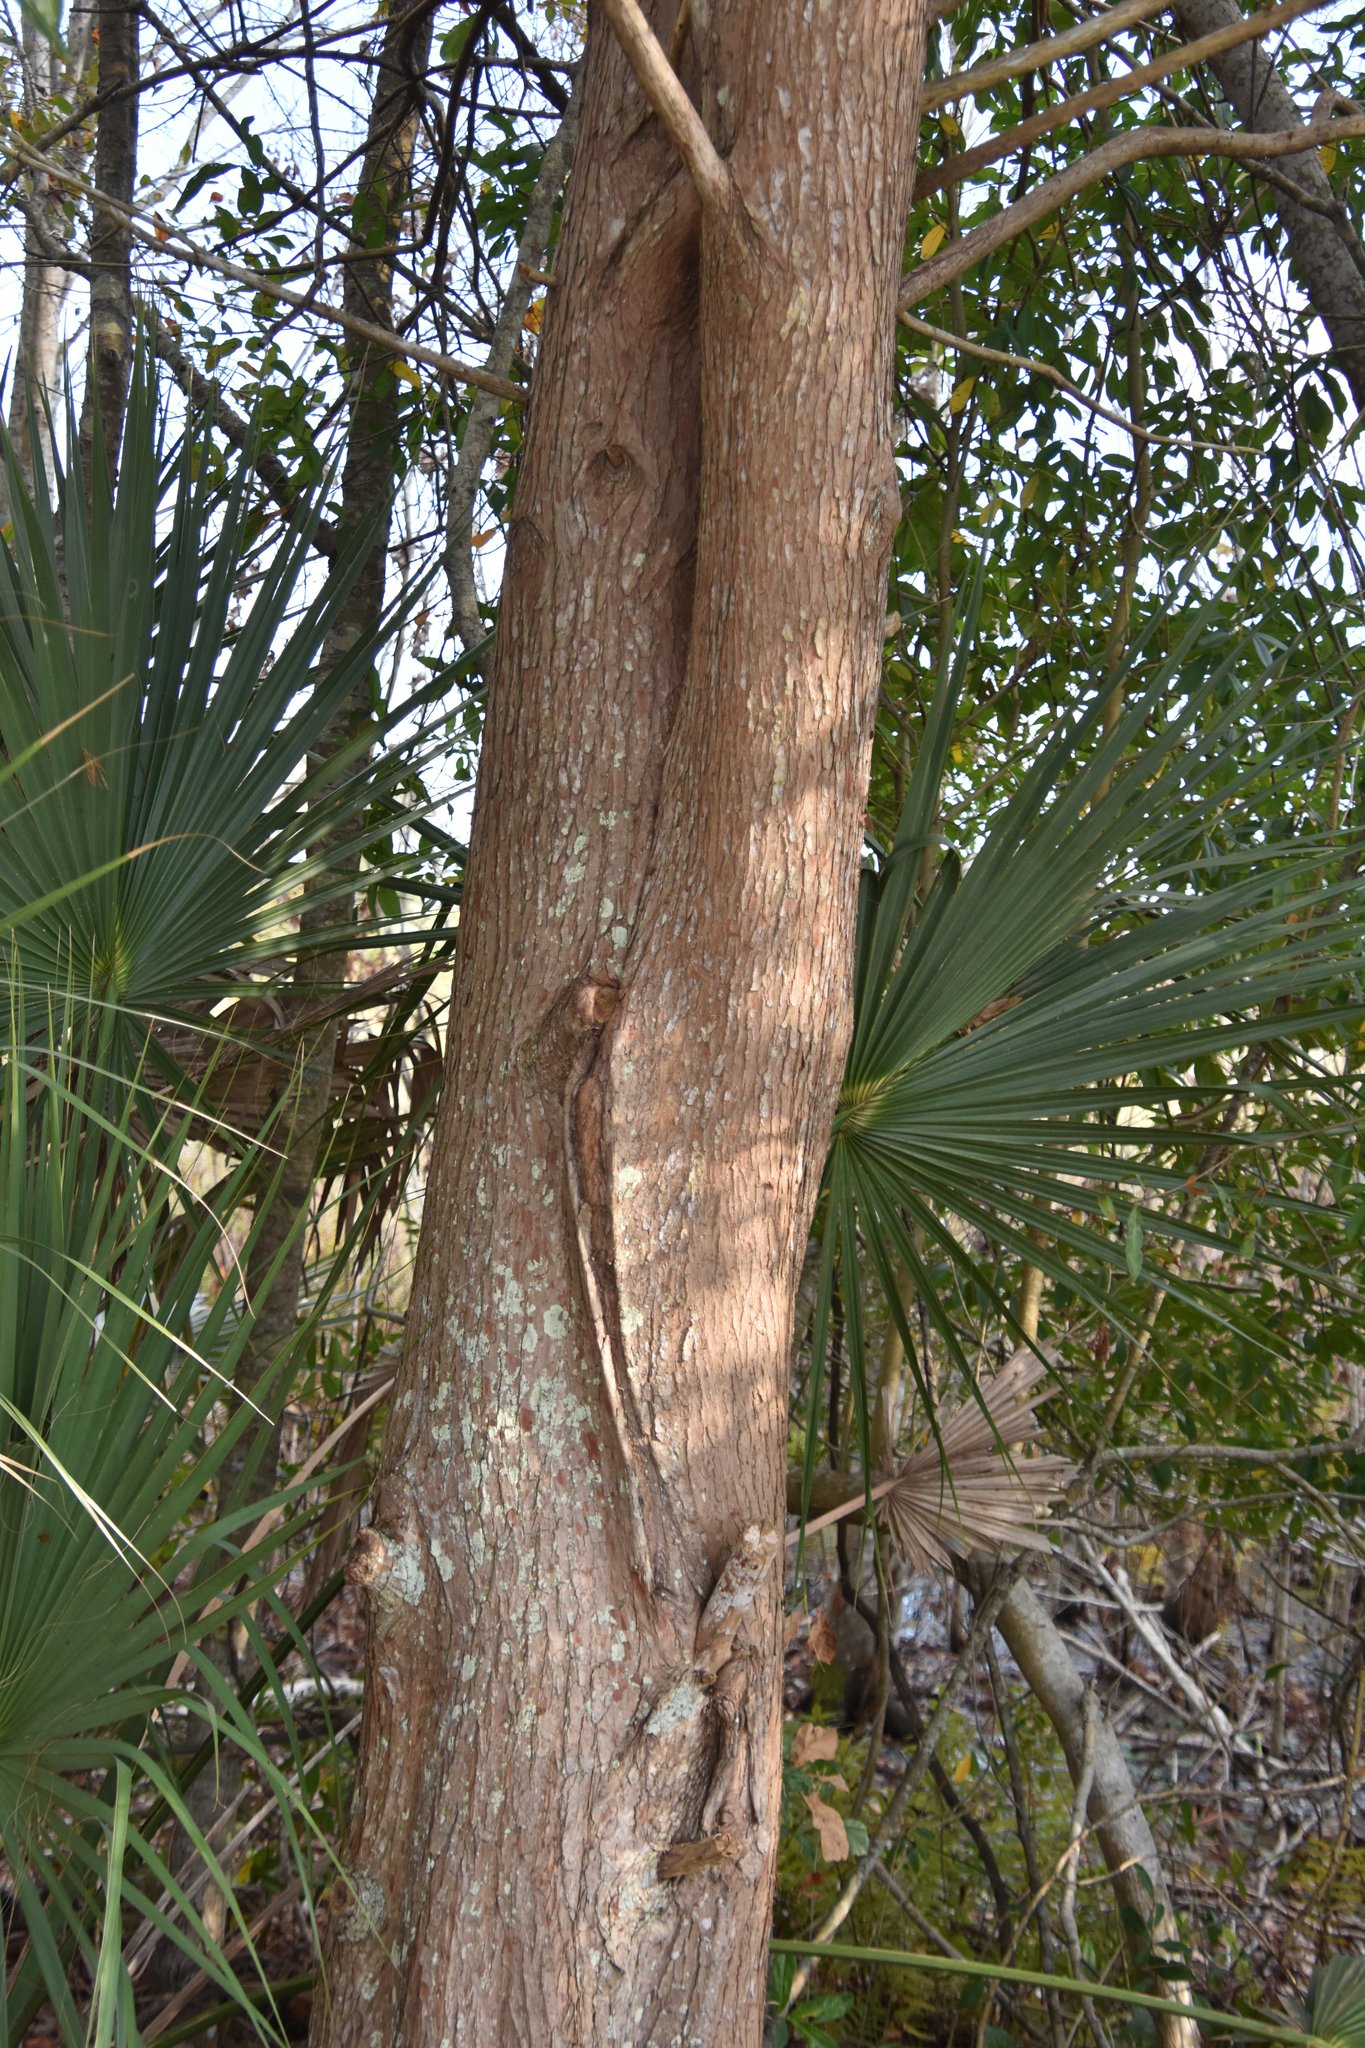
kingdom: Plantae
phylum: Tracheophyta
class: Pinopsida
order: Pinales
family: Cupressaceae
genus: Taxodium
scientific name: Taxodium distichum
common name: Bald cypress
